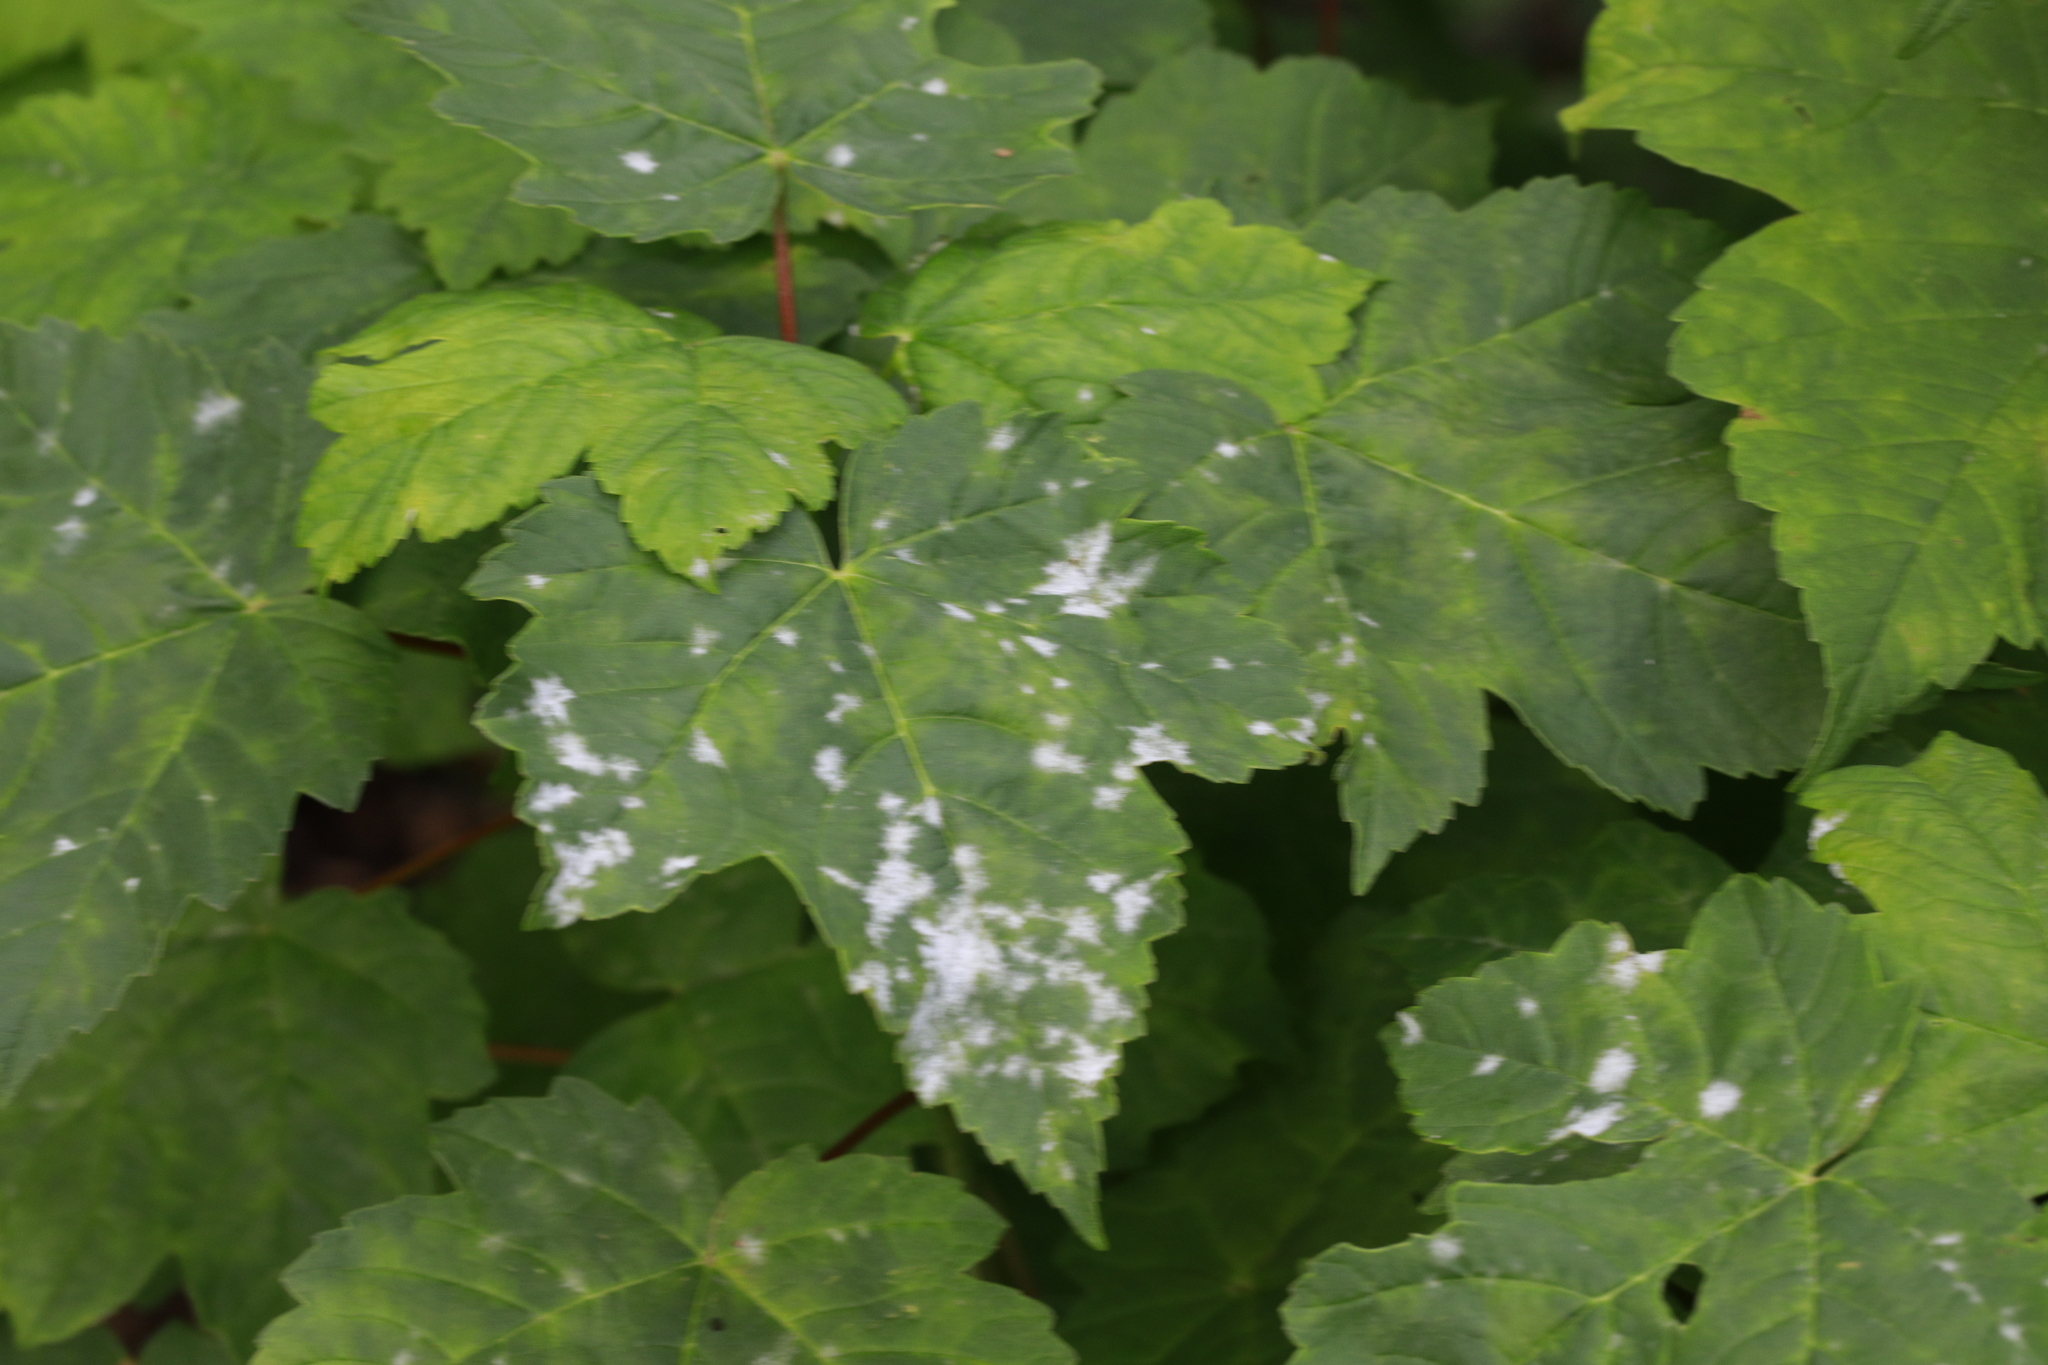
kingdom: Fungi
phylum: Ascomycota
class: Leotiomycetes
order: Helotiales
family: Erysiphaceae
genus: Sawadaea
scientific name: Sawadaea bicornis
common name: Maple mildew
